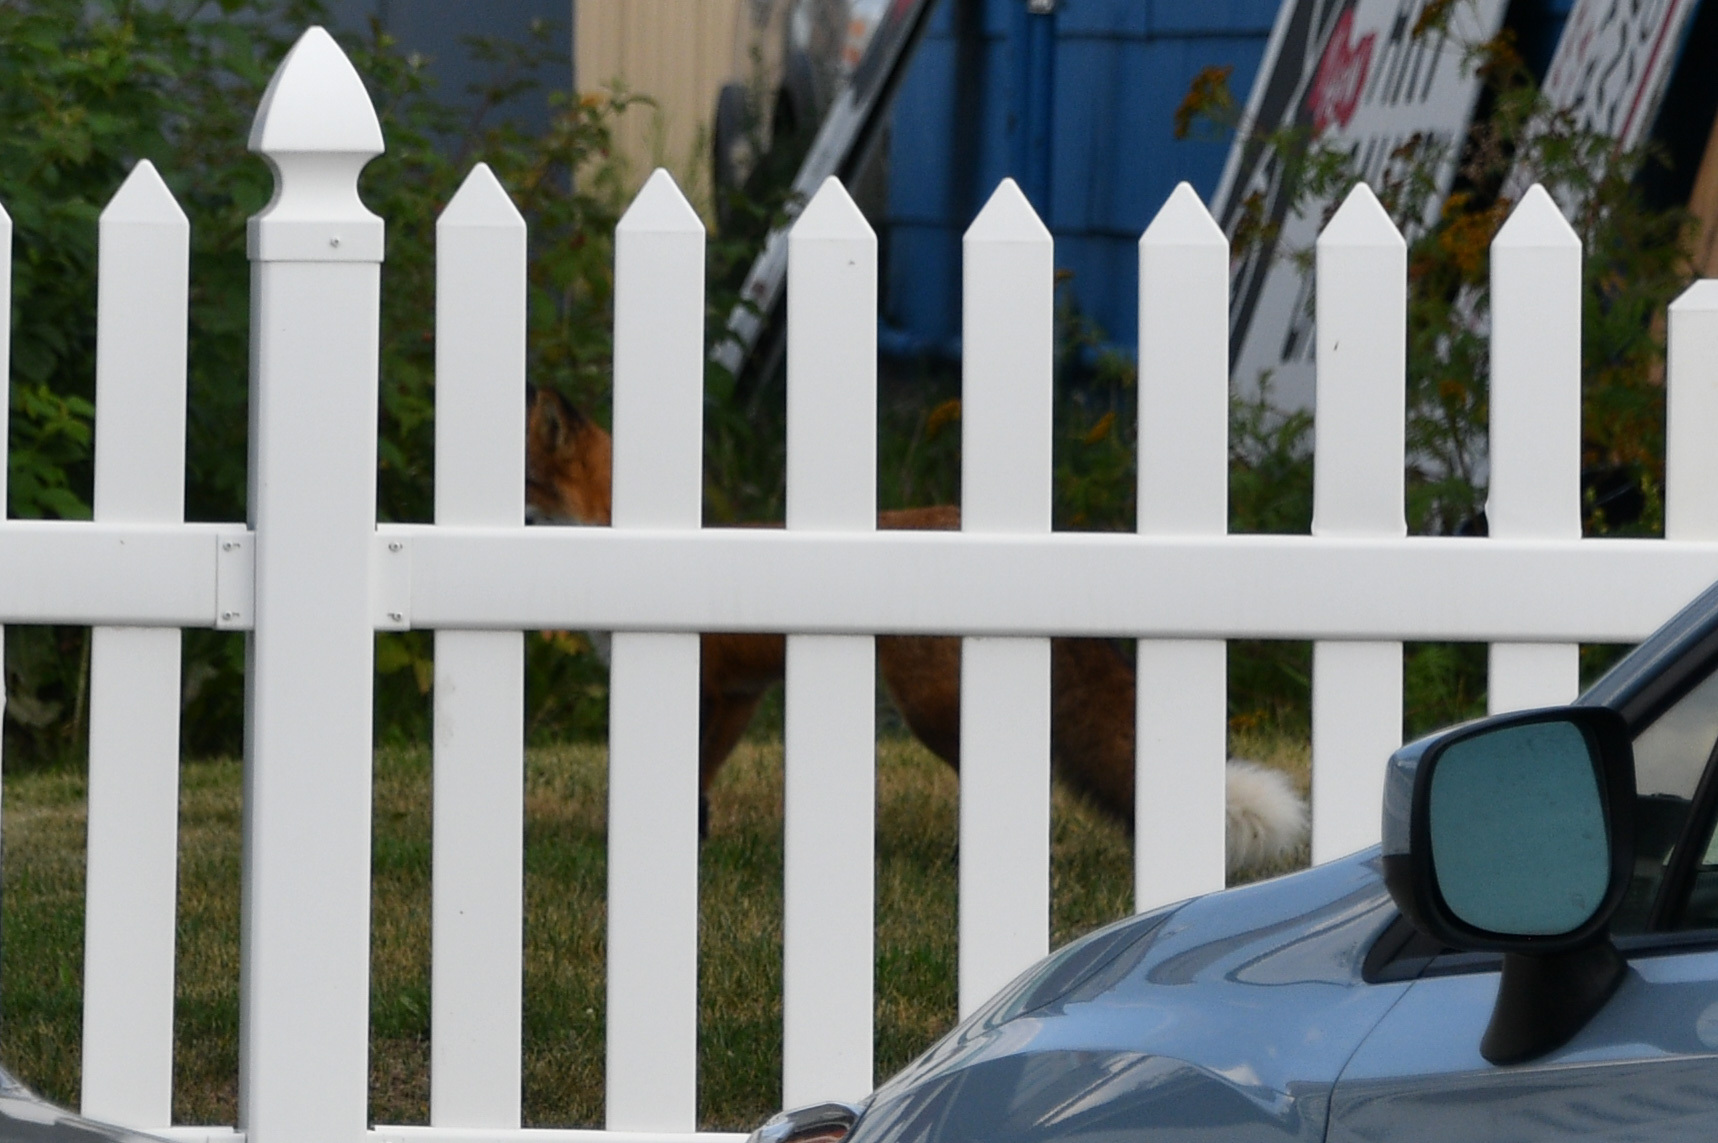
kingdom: Animalia
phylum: Chordata
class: Mammalia
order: Carnivora
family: Canidae
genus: Vulpes
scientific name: Vulpes vulpes
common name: Red fox
